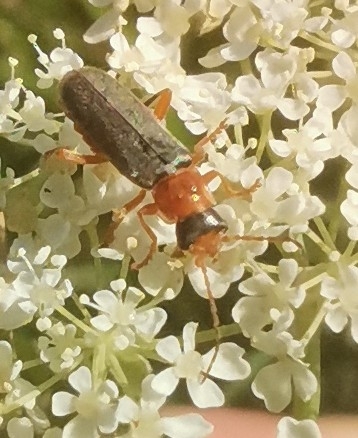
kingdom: Animalia
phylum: Arthropoda
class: Insecta
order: Coleoptera
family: Cantharidae
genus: Cantharis
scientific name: Cantharis lateralis
